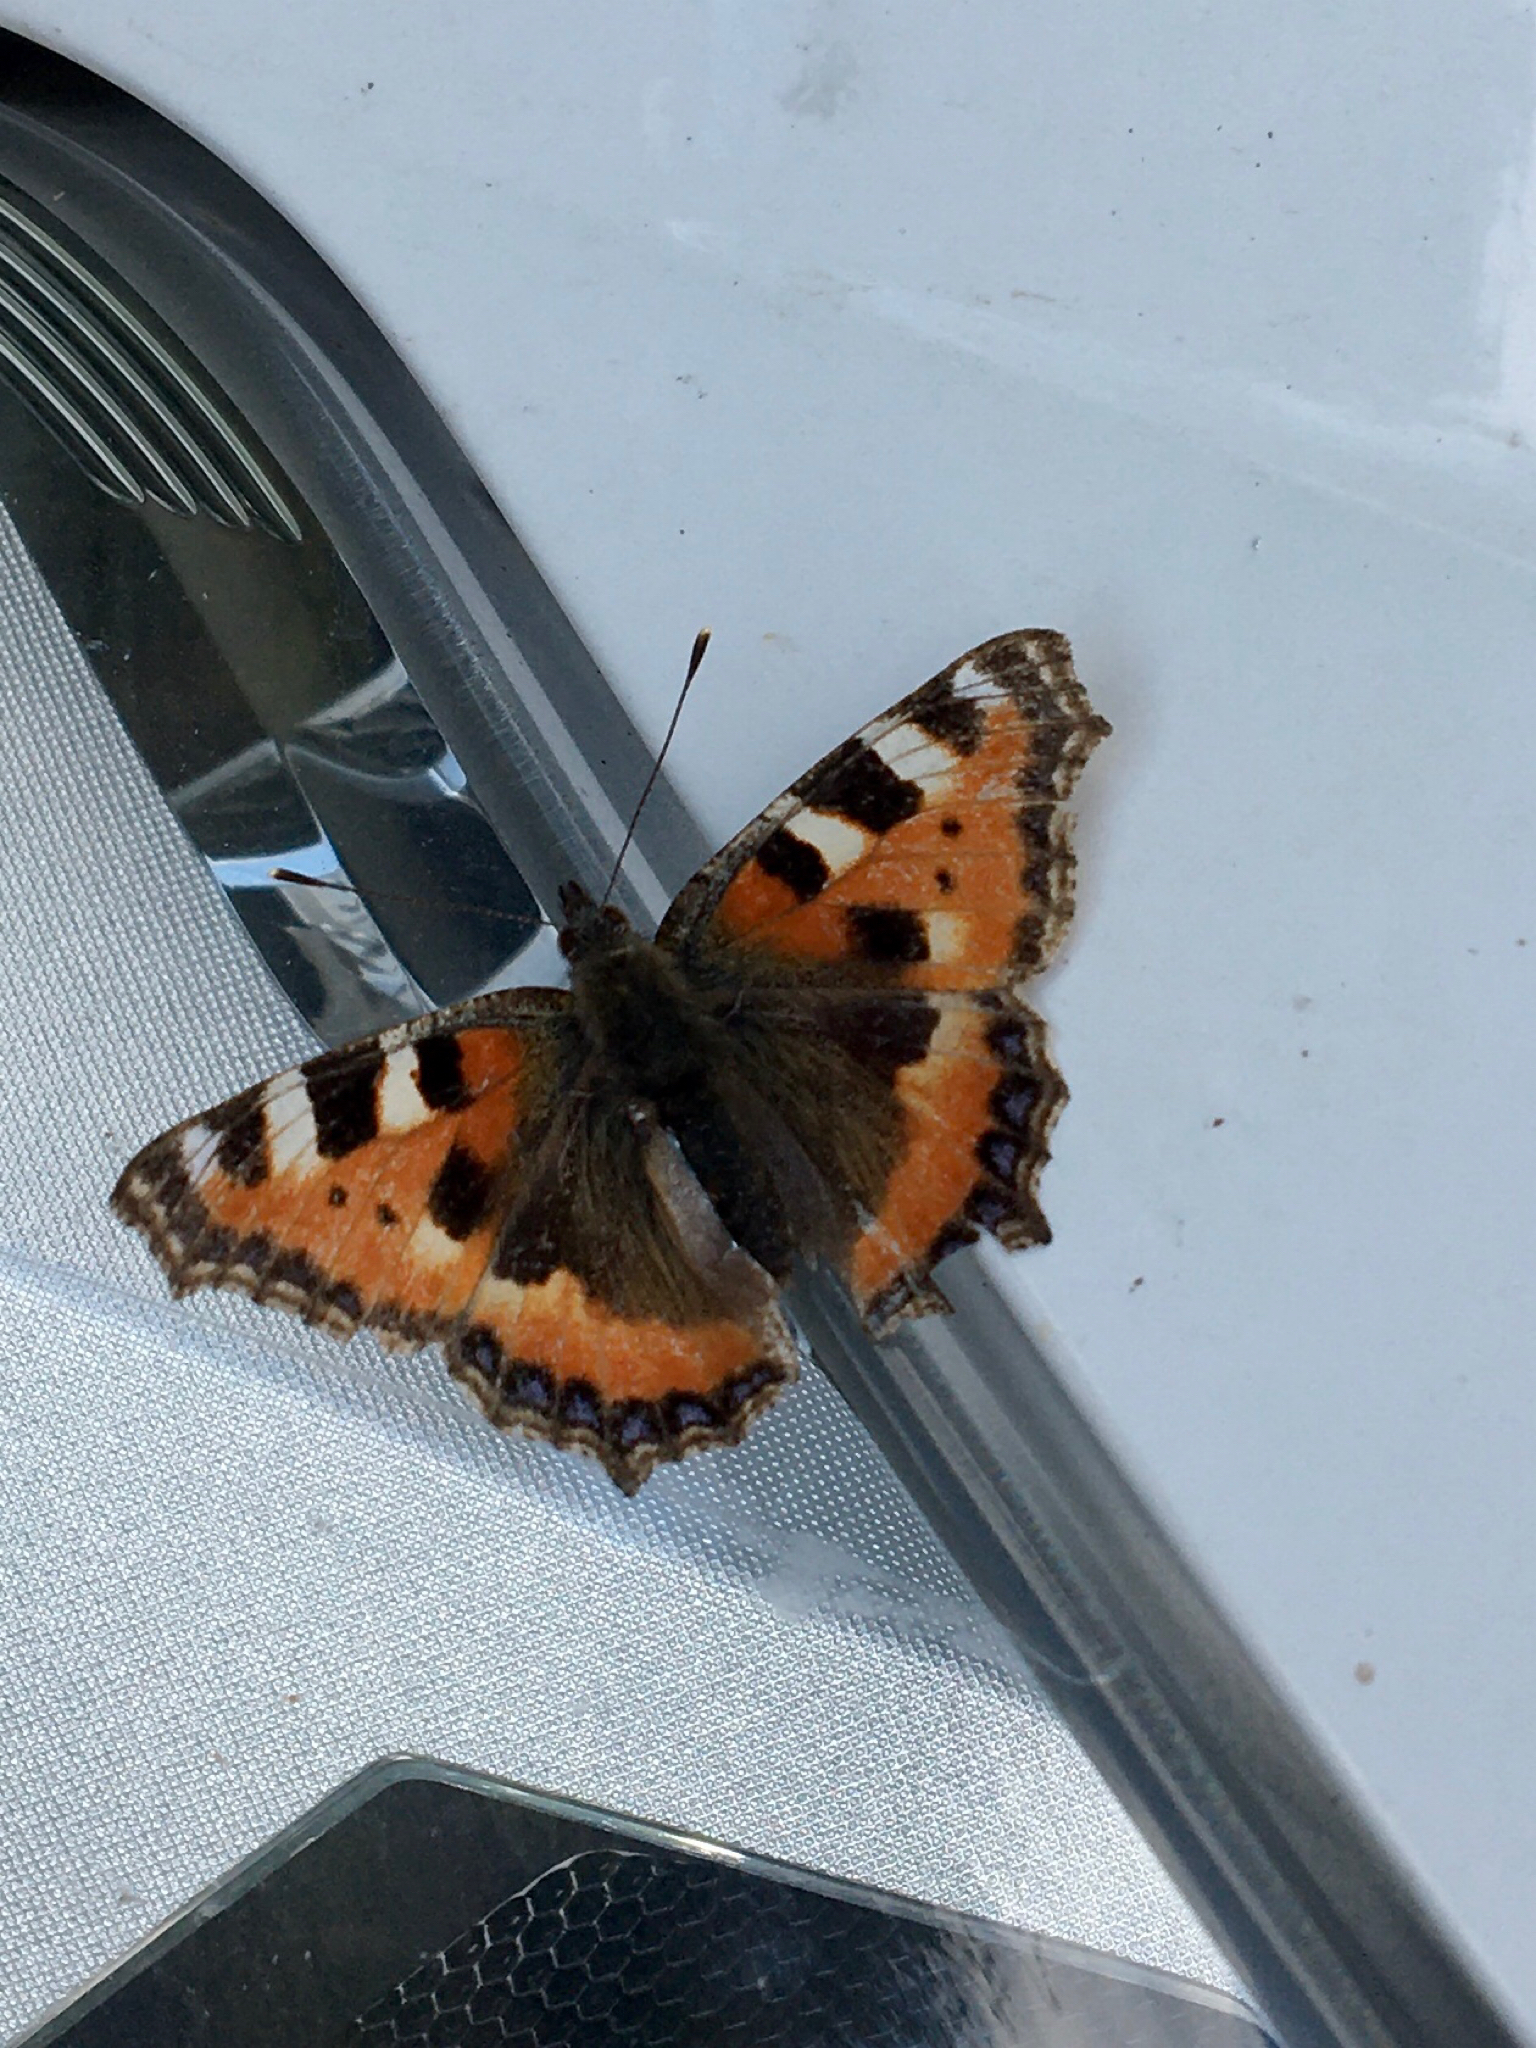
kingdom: Animalia
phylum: Arthropoda
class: Insecta
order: Lepidoptera
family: Nymphalidae
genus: Aglais
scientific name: Aglais urticae
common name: Small tortoiseshell
